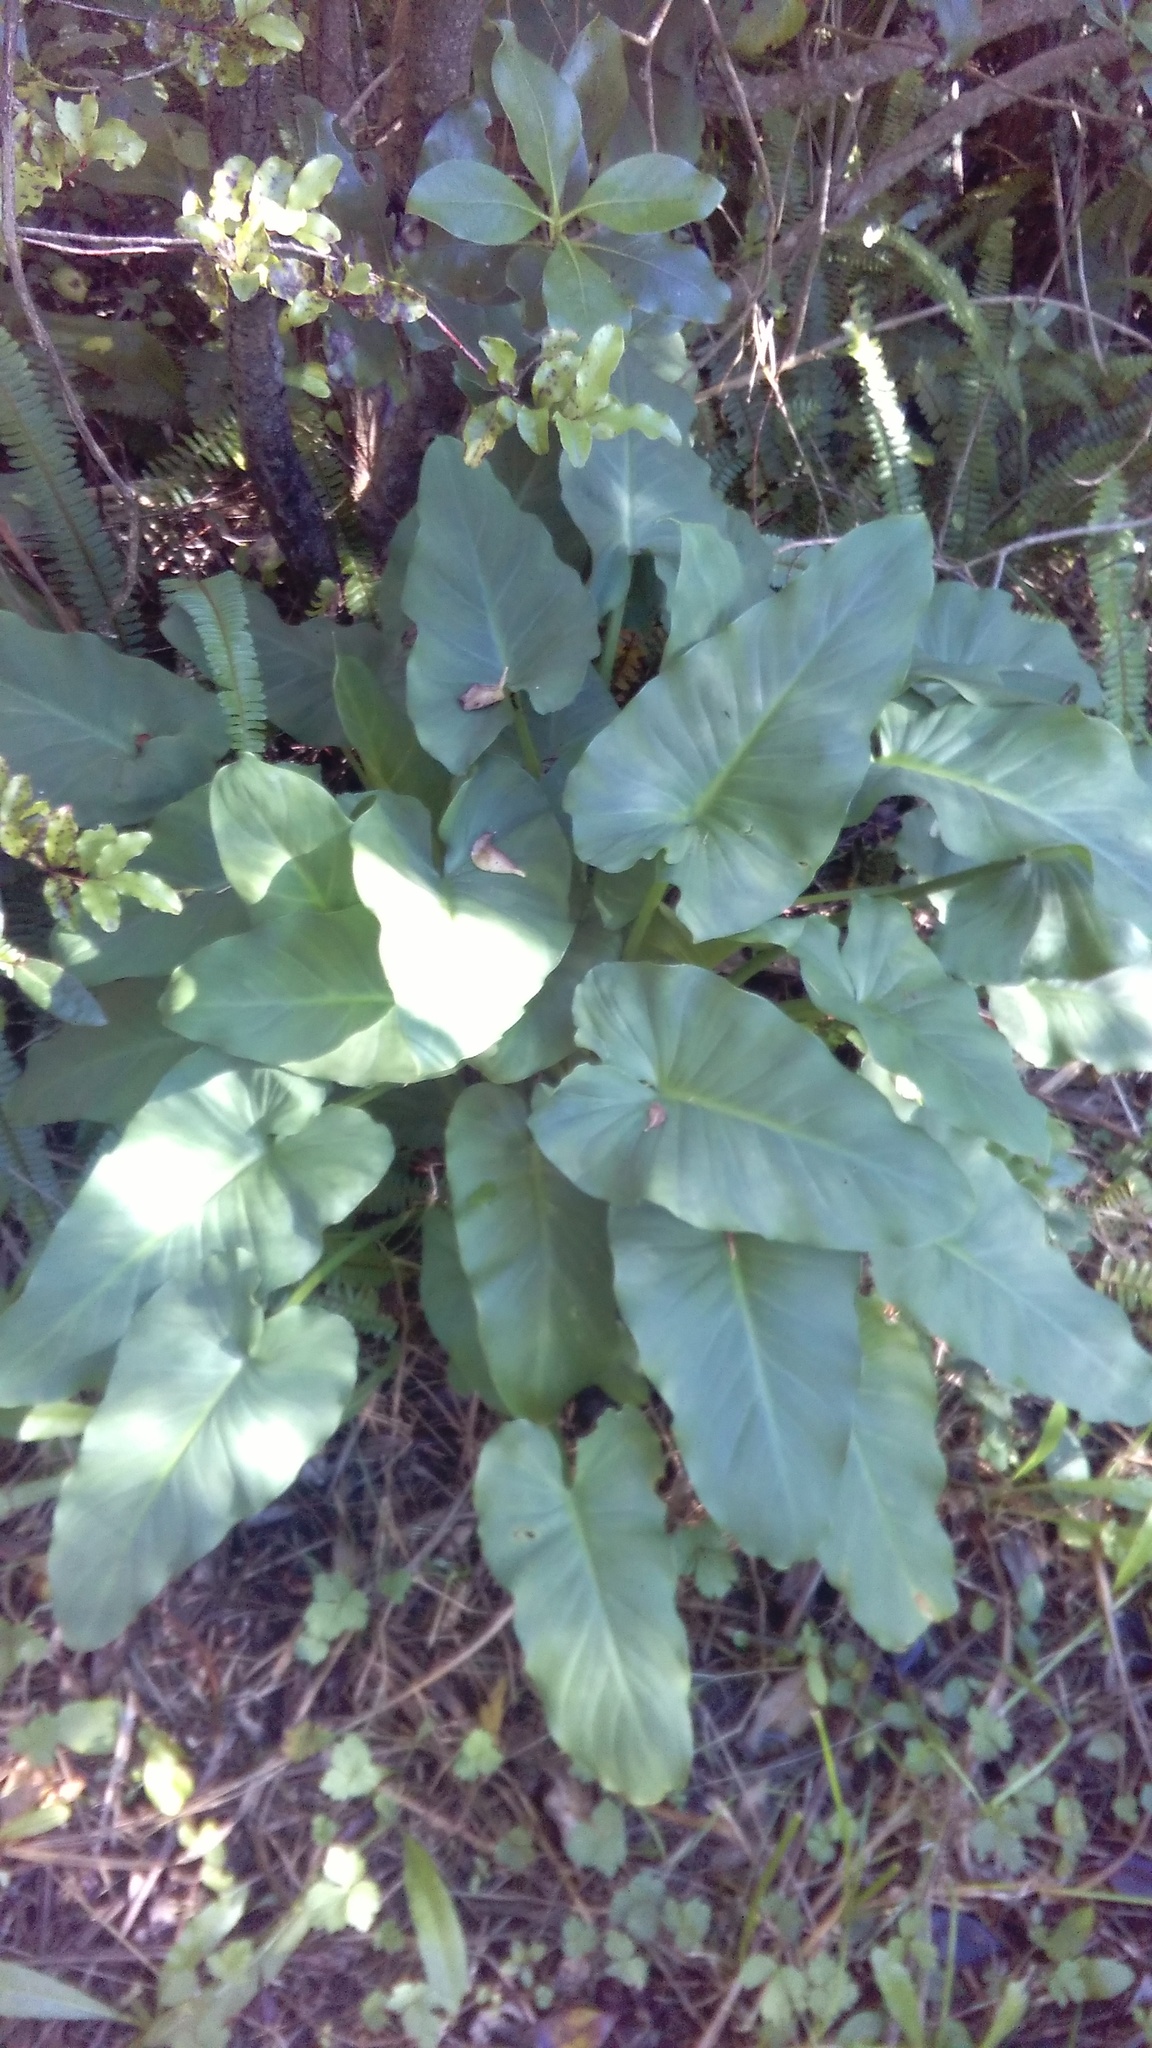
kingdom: Plantae
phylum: Tracheophyta
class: Liliopsida
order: Alismatales
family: Araceae
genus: Zantedeschia
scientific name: Zantedeschia aethiopica
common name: Altar-lily
